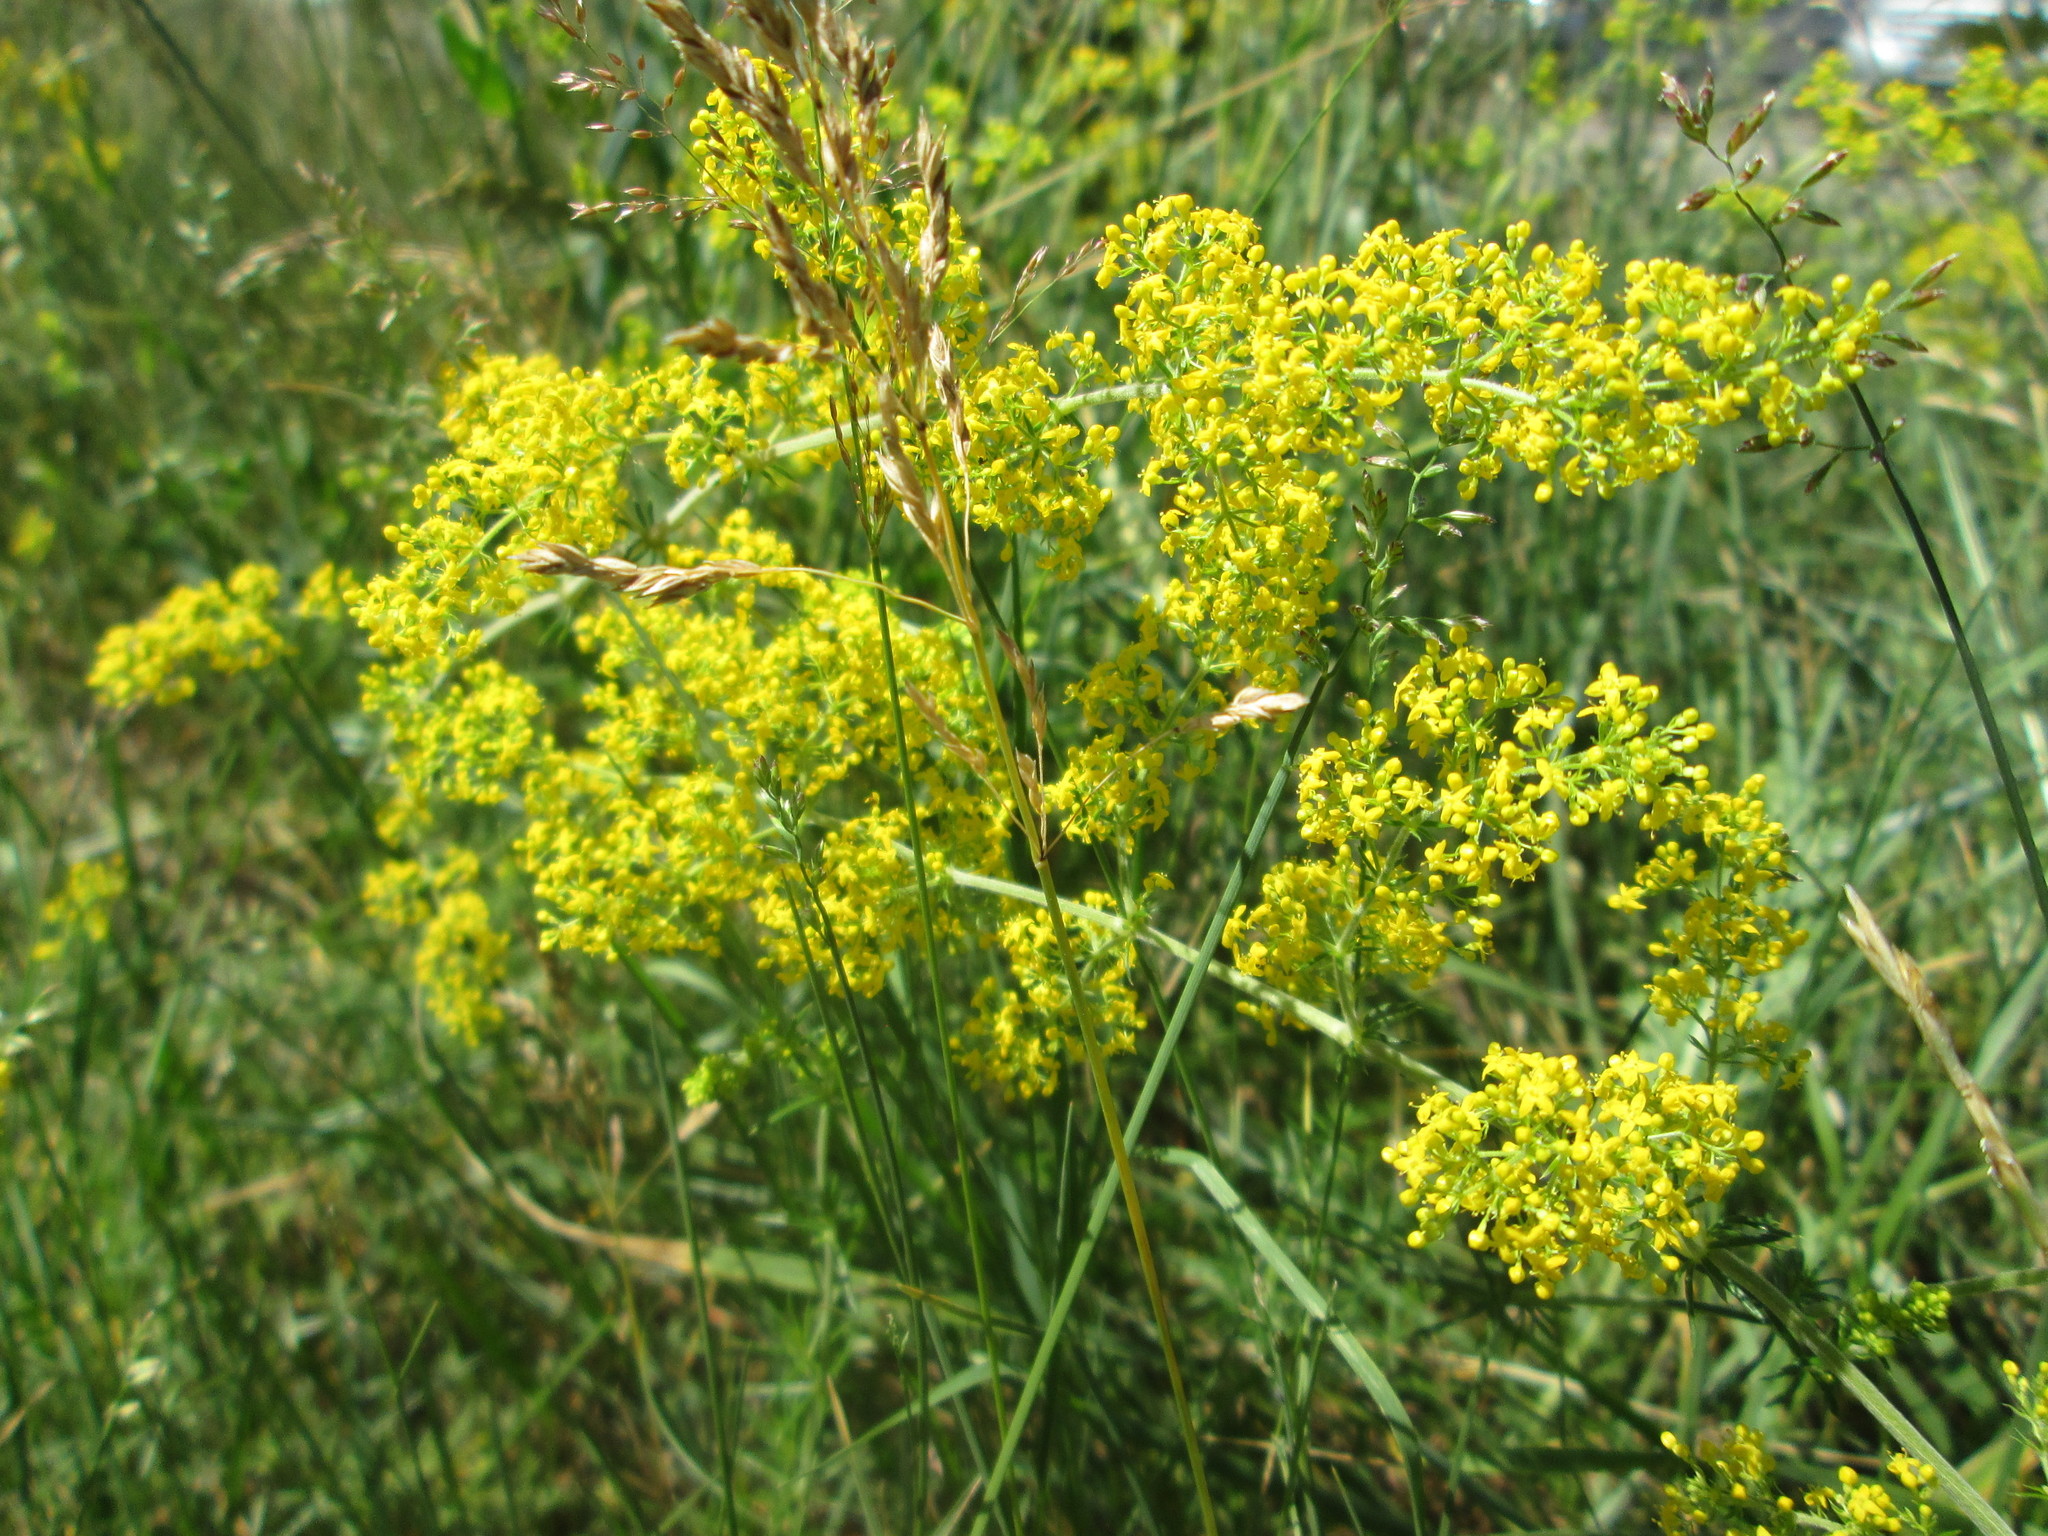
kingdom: Plantae
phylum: Tracheophyta
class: Magnoliopsida
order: Gentianales
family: Rubiaceae
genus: Galium
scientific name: Galium verum
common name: Lady's bedstraw
